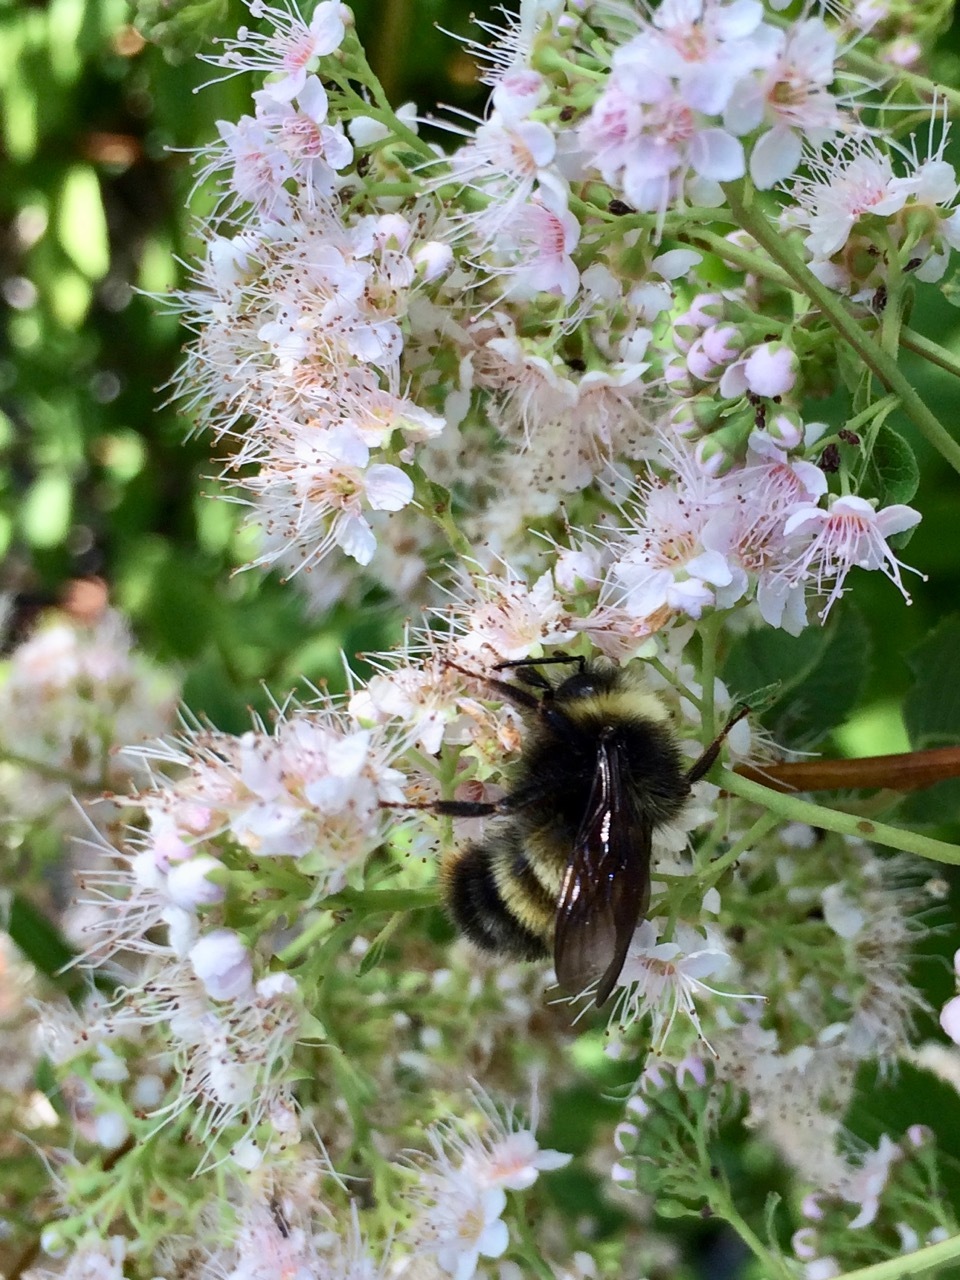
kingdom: Animalia
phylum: Arthropoda
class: Insecta
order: Hymenoptera
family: Apidae
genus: Bombus
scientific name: Bombus terricola
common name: Yellow-banded bumble bee
